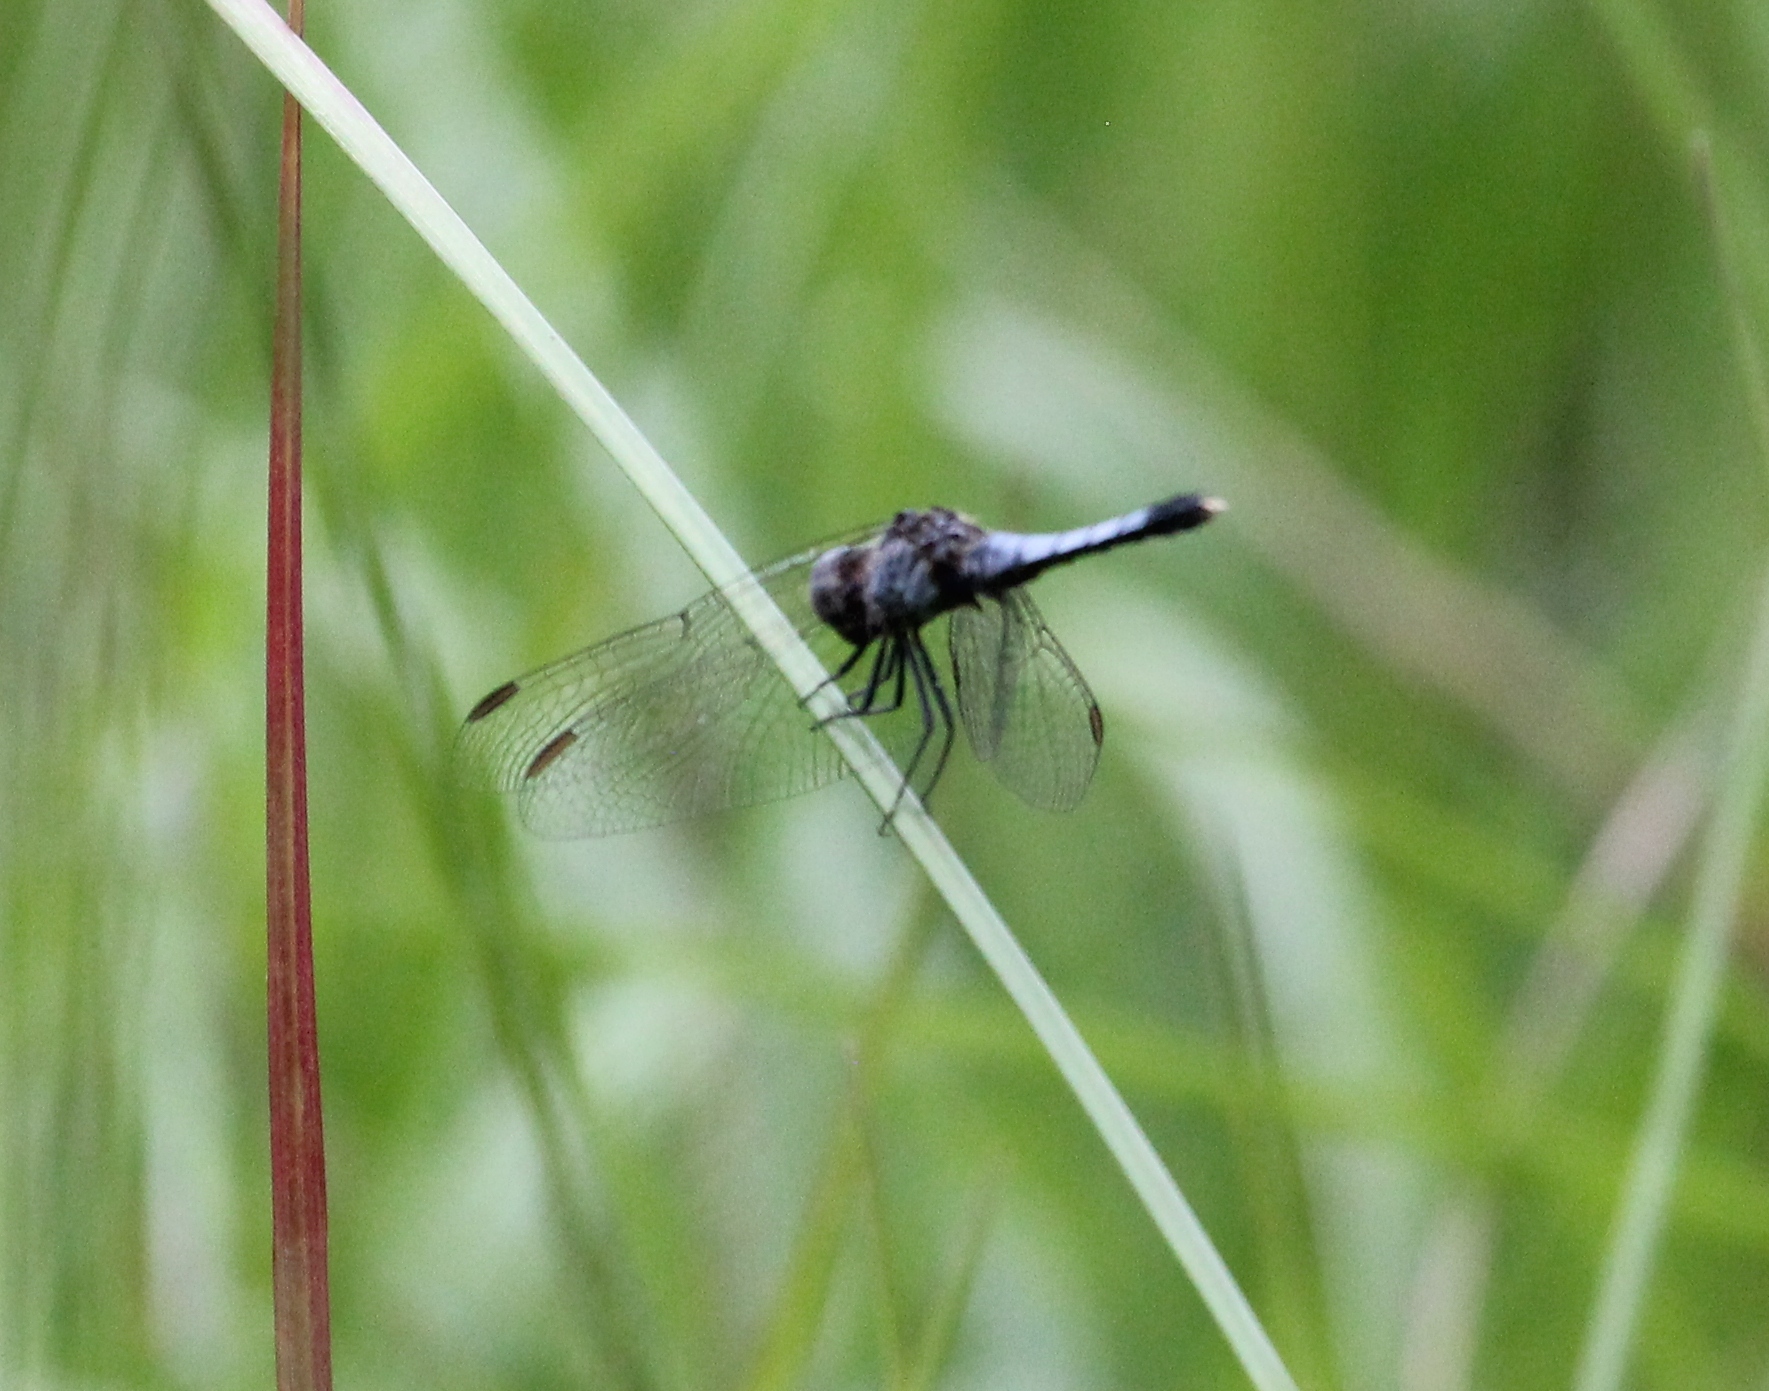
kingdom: Animalia
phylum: Arthropoda
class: Insecta
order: Odonata
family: Libellulidae
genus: Erythrodiplax
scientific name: Erythrodiplax minuscula
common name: Little blue dragonlet
